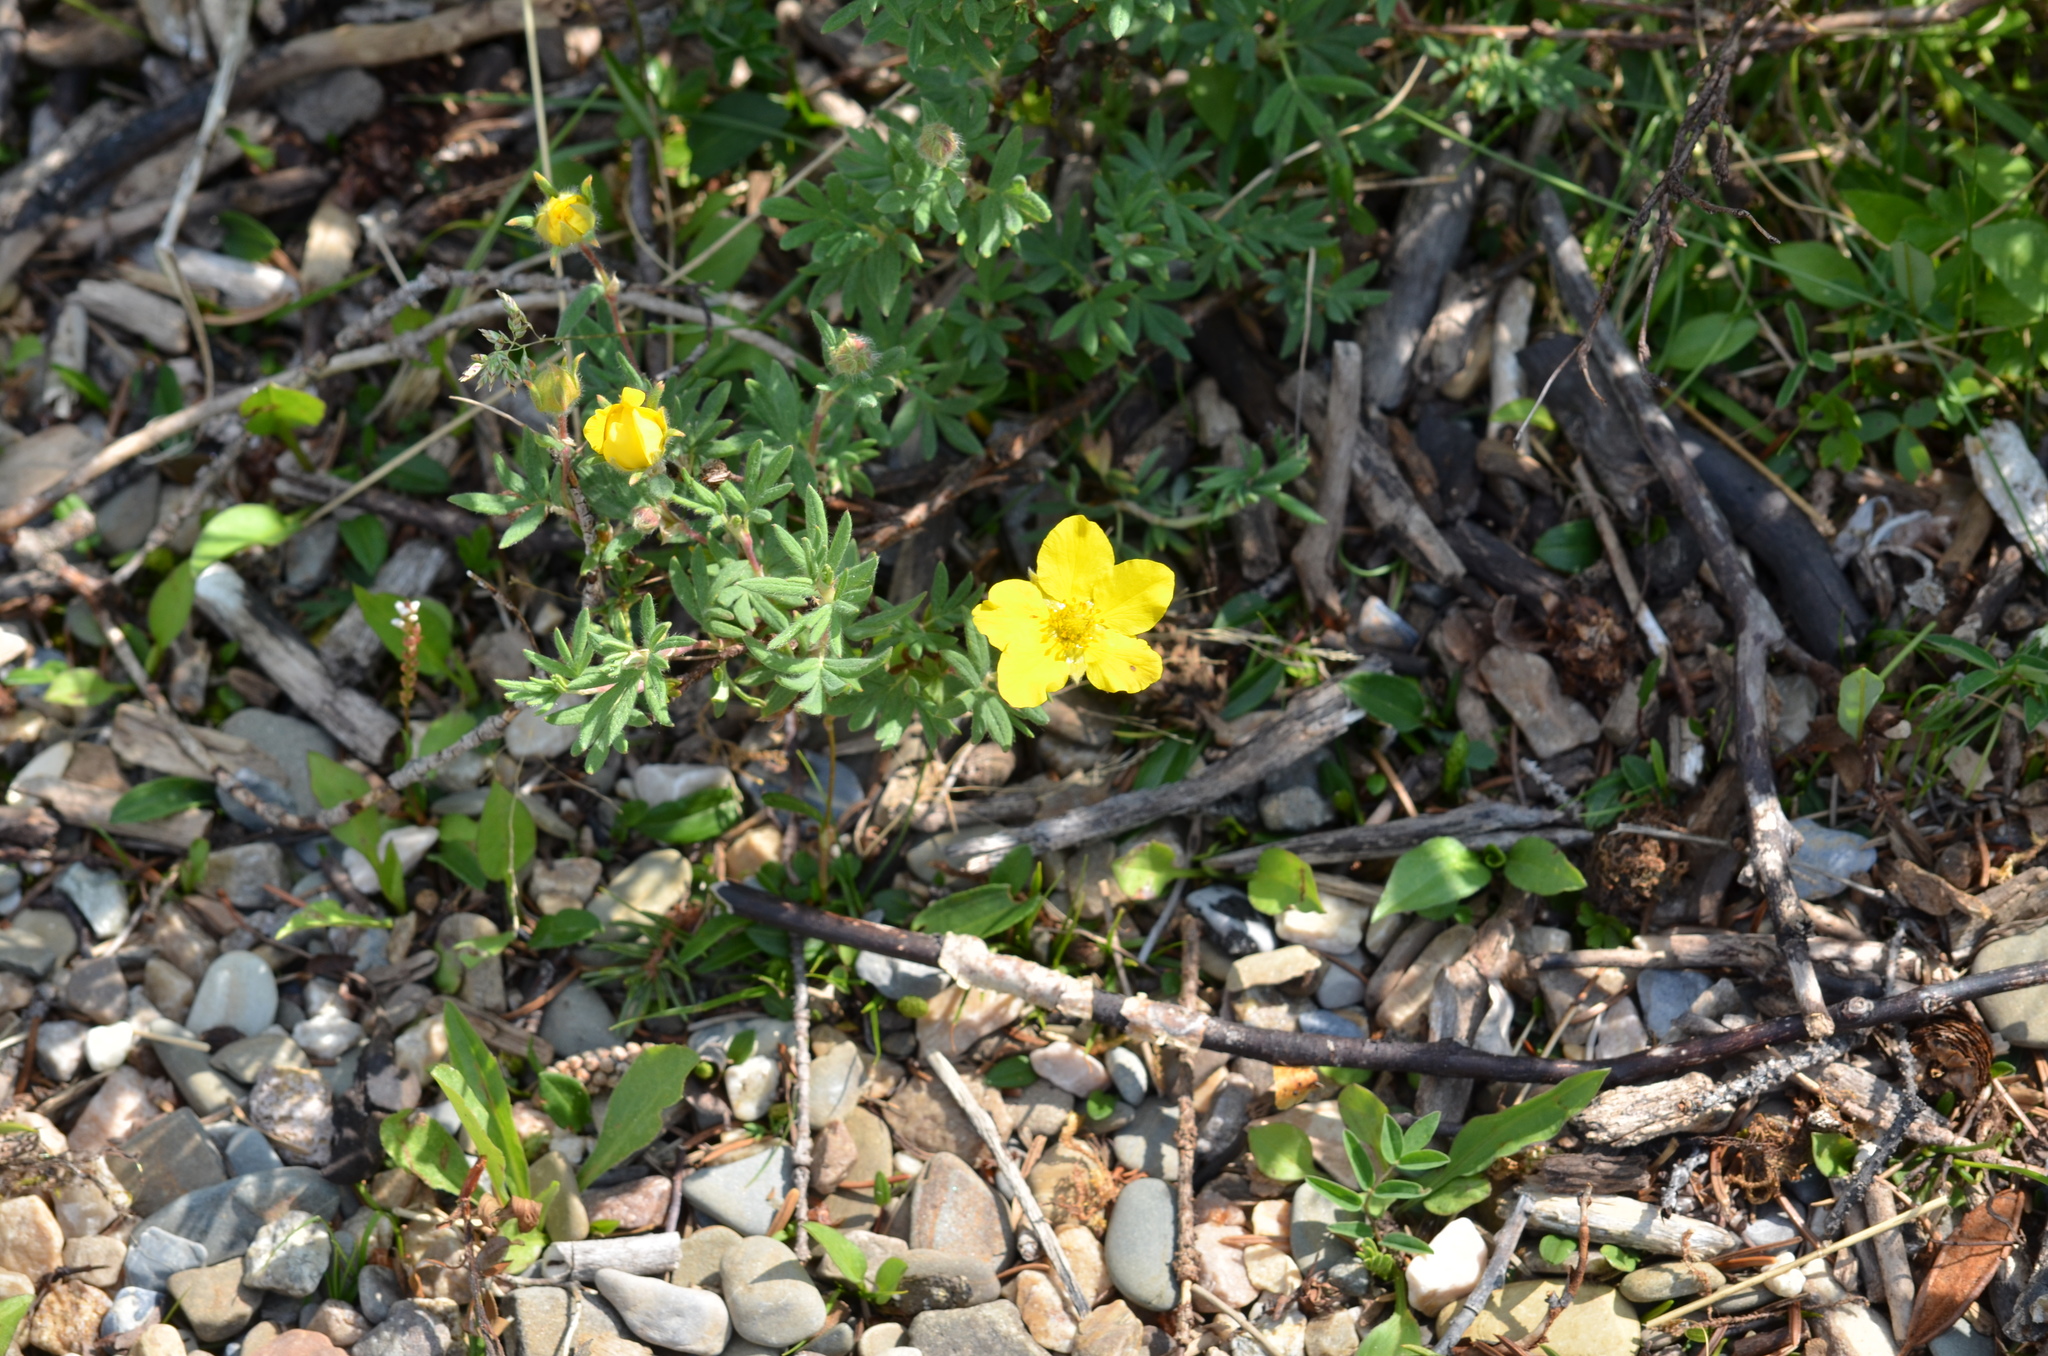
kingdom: Plantae
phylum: Tracheophyta
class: Magnoliopsida
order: Rosales
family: Rosaceae
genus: Dasiphora
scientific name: Dasiphora fruticosa
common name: Shrubby cinquefoil
